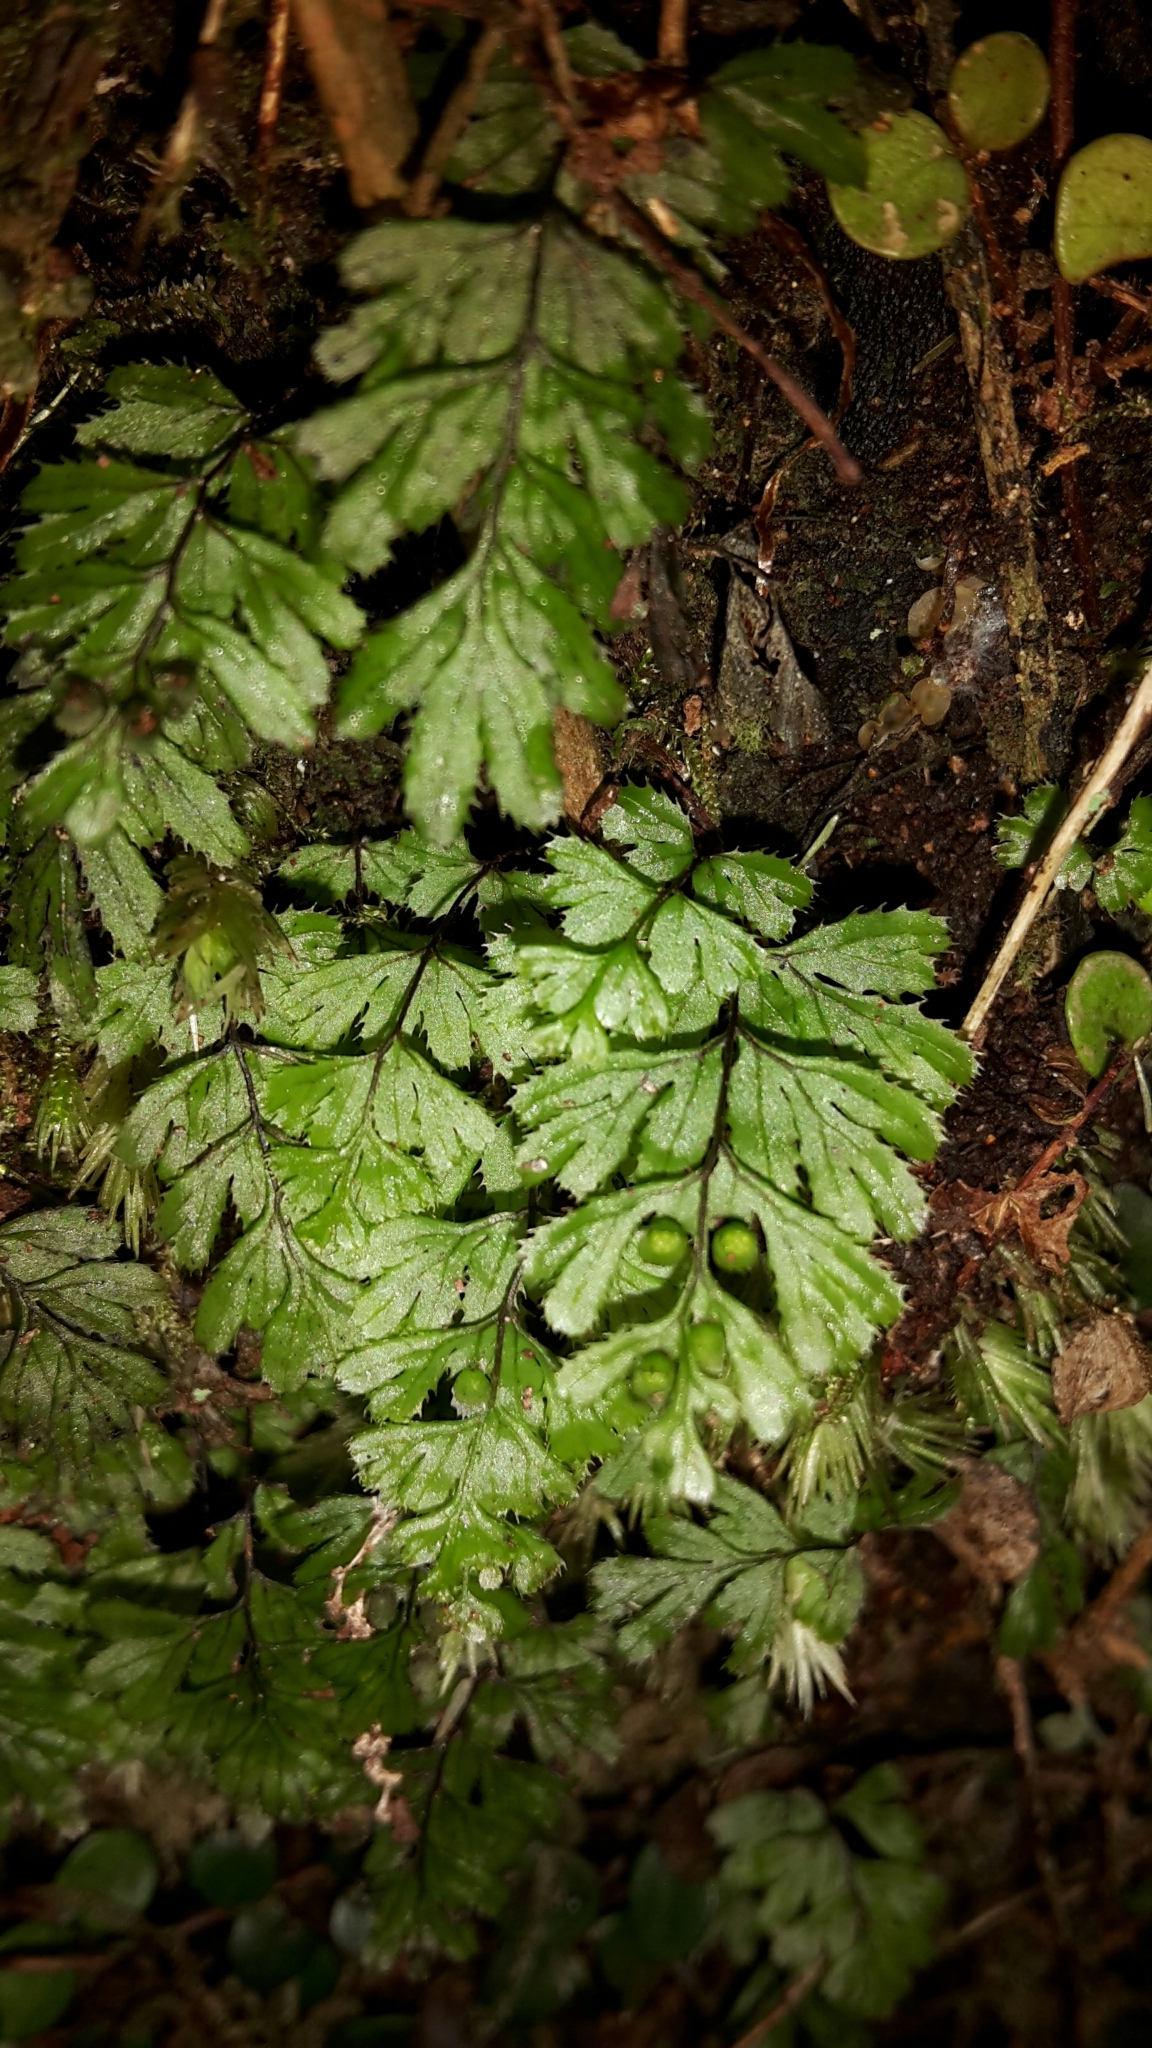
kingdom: Plantae
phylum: Tracheophyta
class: Polypodiopsida
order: Hymenophyllales
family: Hymenophyllaceae
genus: Hymenophyllum
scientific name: Hymenophyllum revolutum
